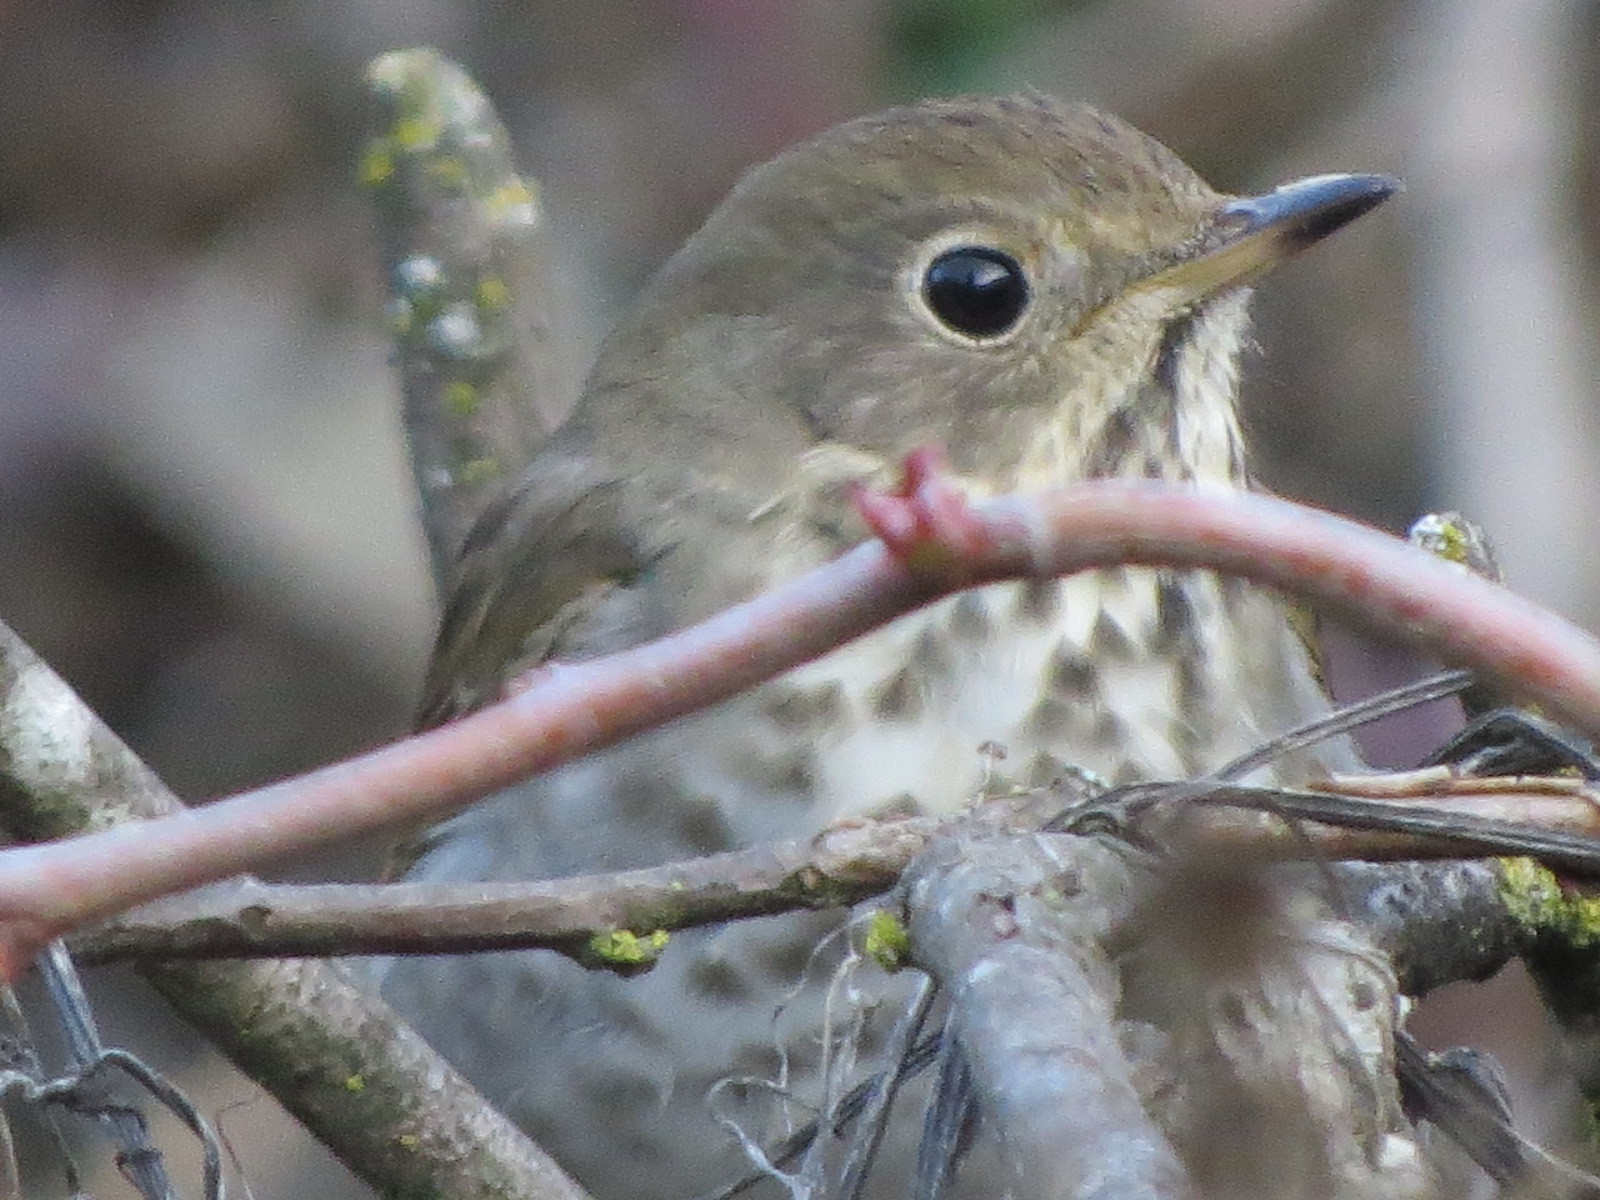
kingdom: Animalia
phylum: Chordata
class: Aves
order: Passeriformes
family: Turdidae
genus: Catharus
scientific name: Catharus guttatus
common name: Hermit thrush
